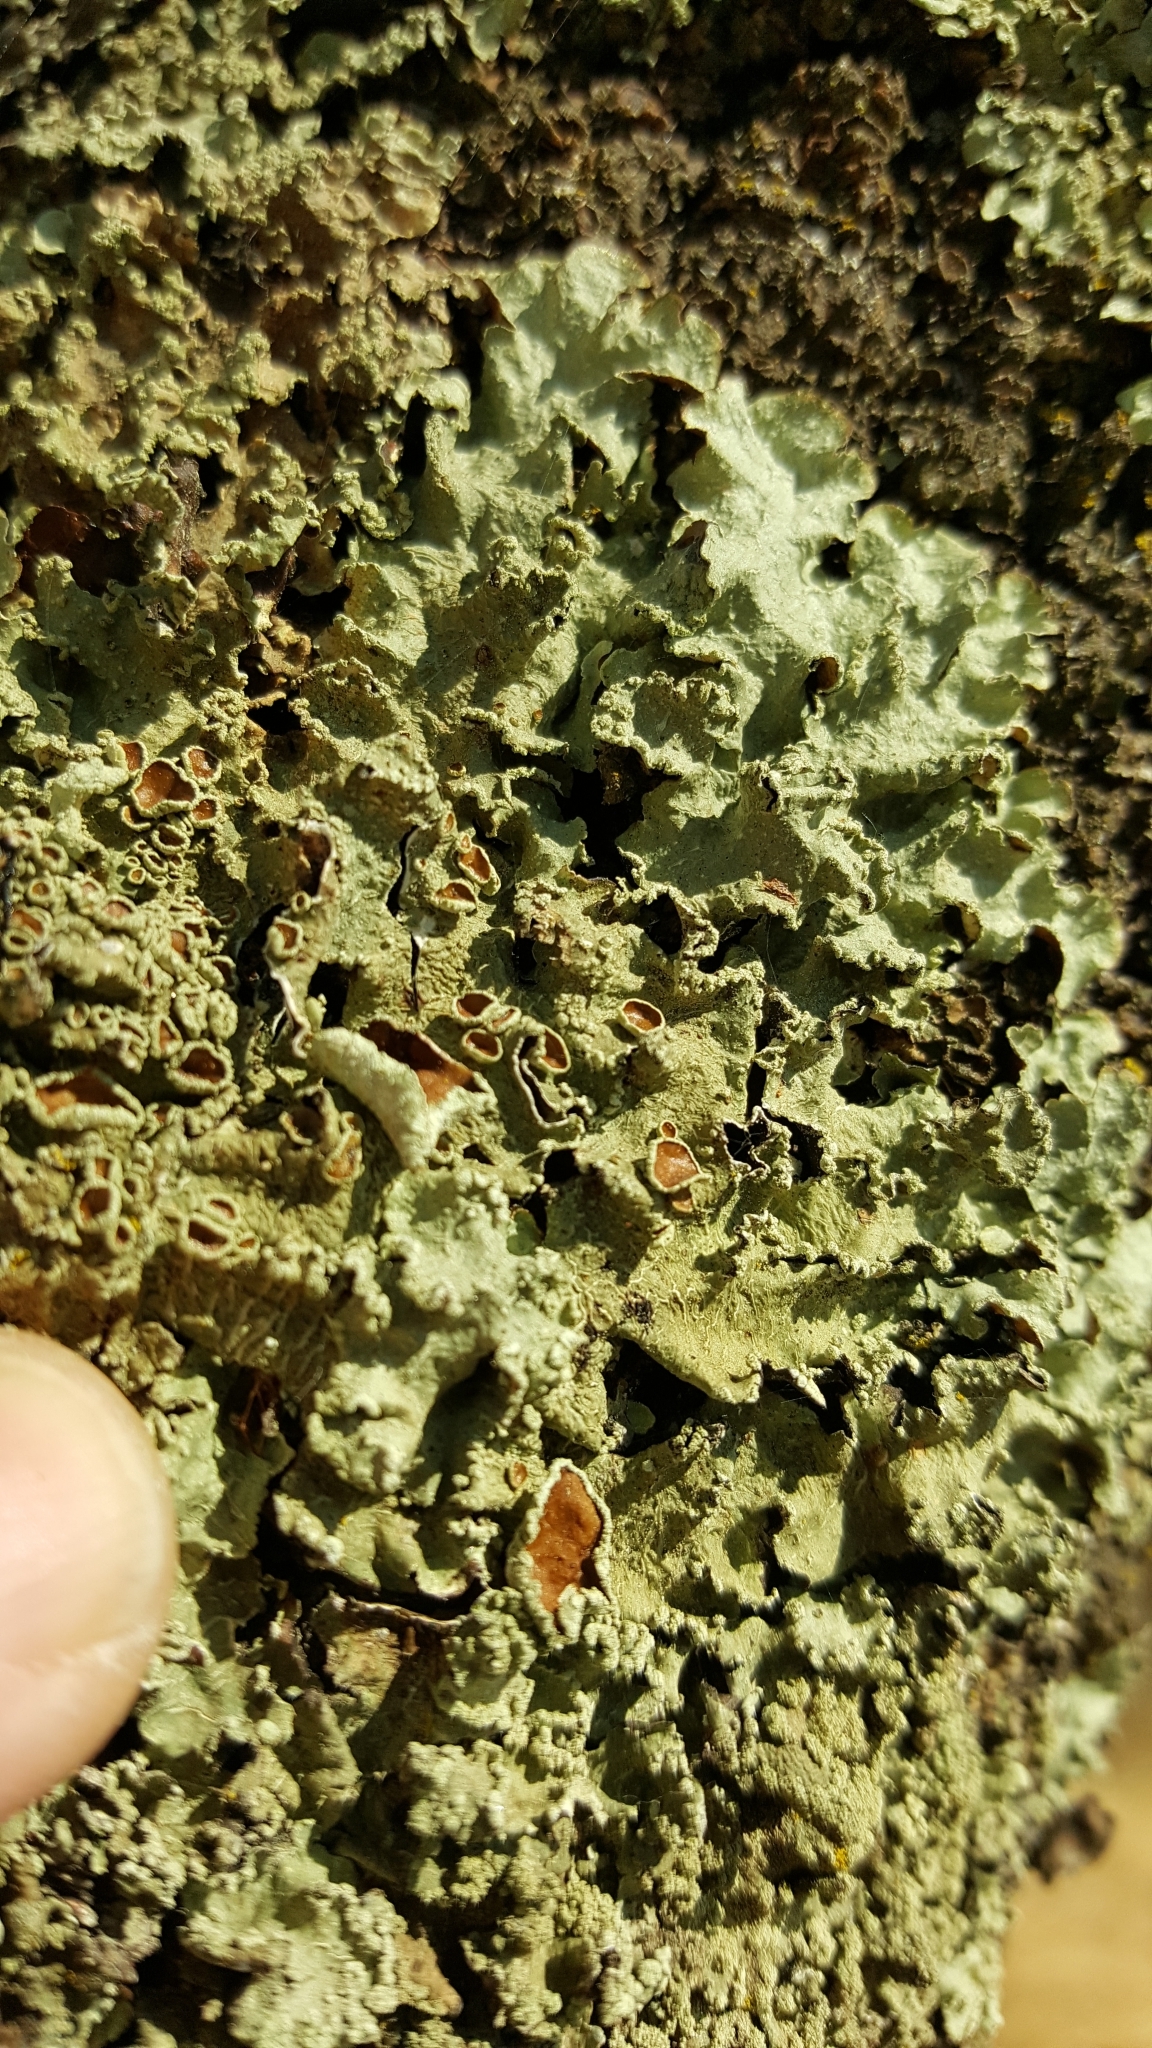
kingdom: Fungi
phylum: Ascomycota
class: Lecanoromycetes
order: Lecanorales
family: Parmeliaceae
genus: Flavopunctelia
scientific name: Flavopunctelia flaventior
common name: Speckled greenshield
